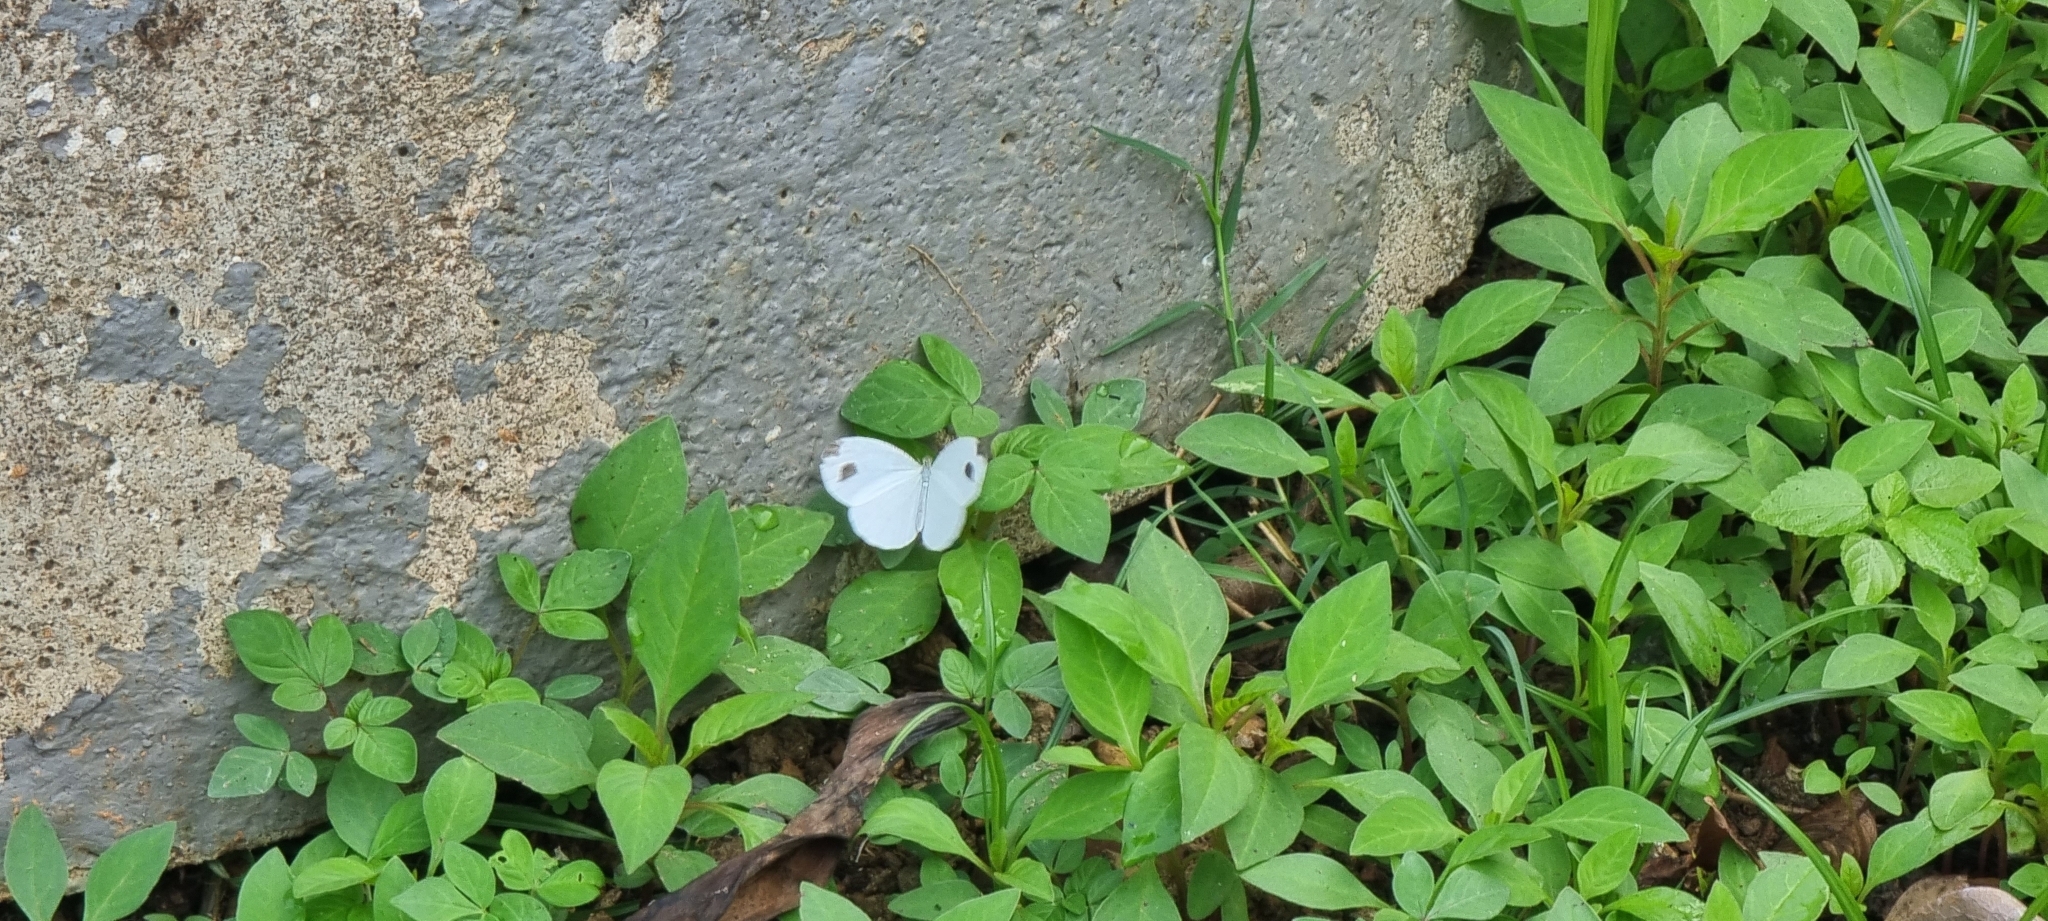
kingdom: Animalia
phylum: Arthropoda
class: Insecta
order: Lepidoptera
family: Pieridae
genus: Leptosia
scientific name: Leptosia nina
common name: Psyche
